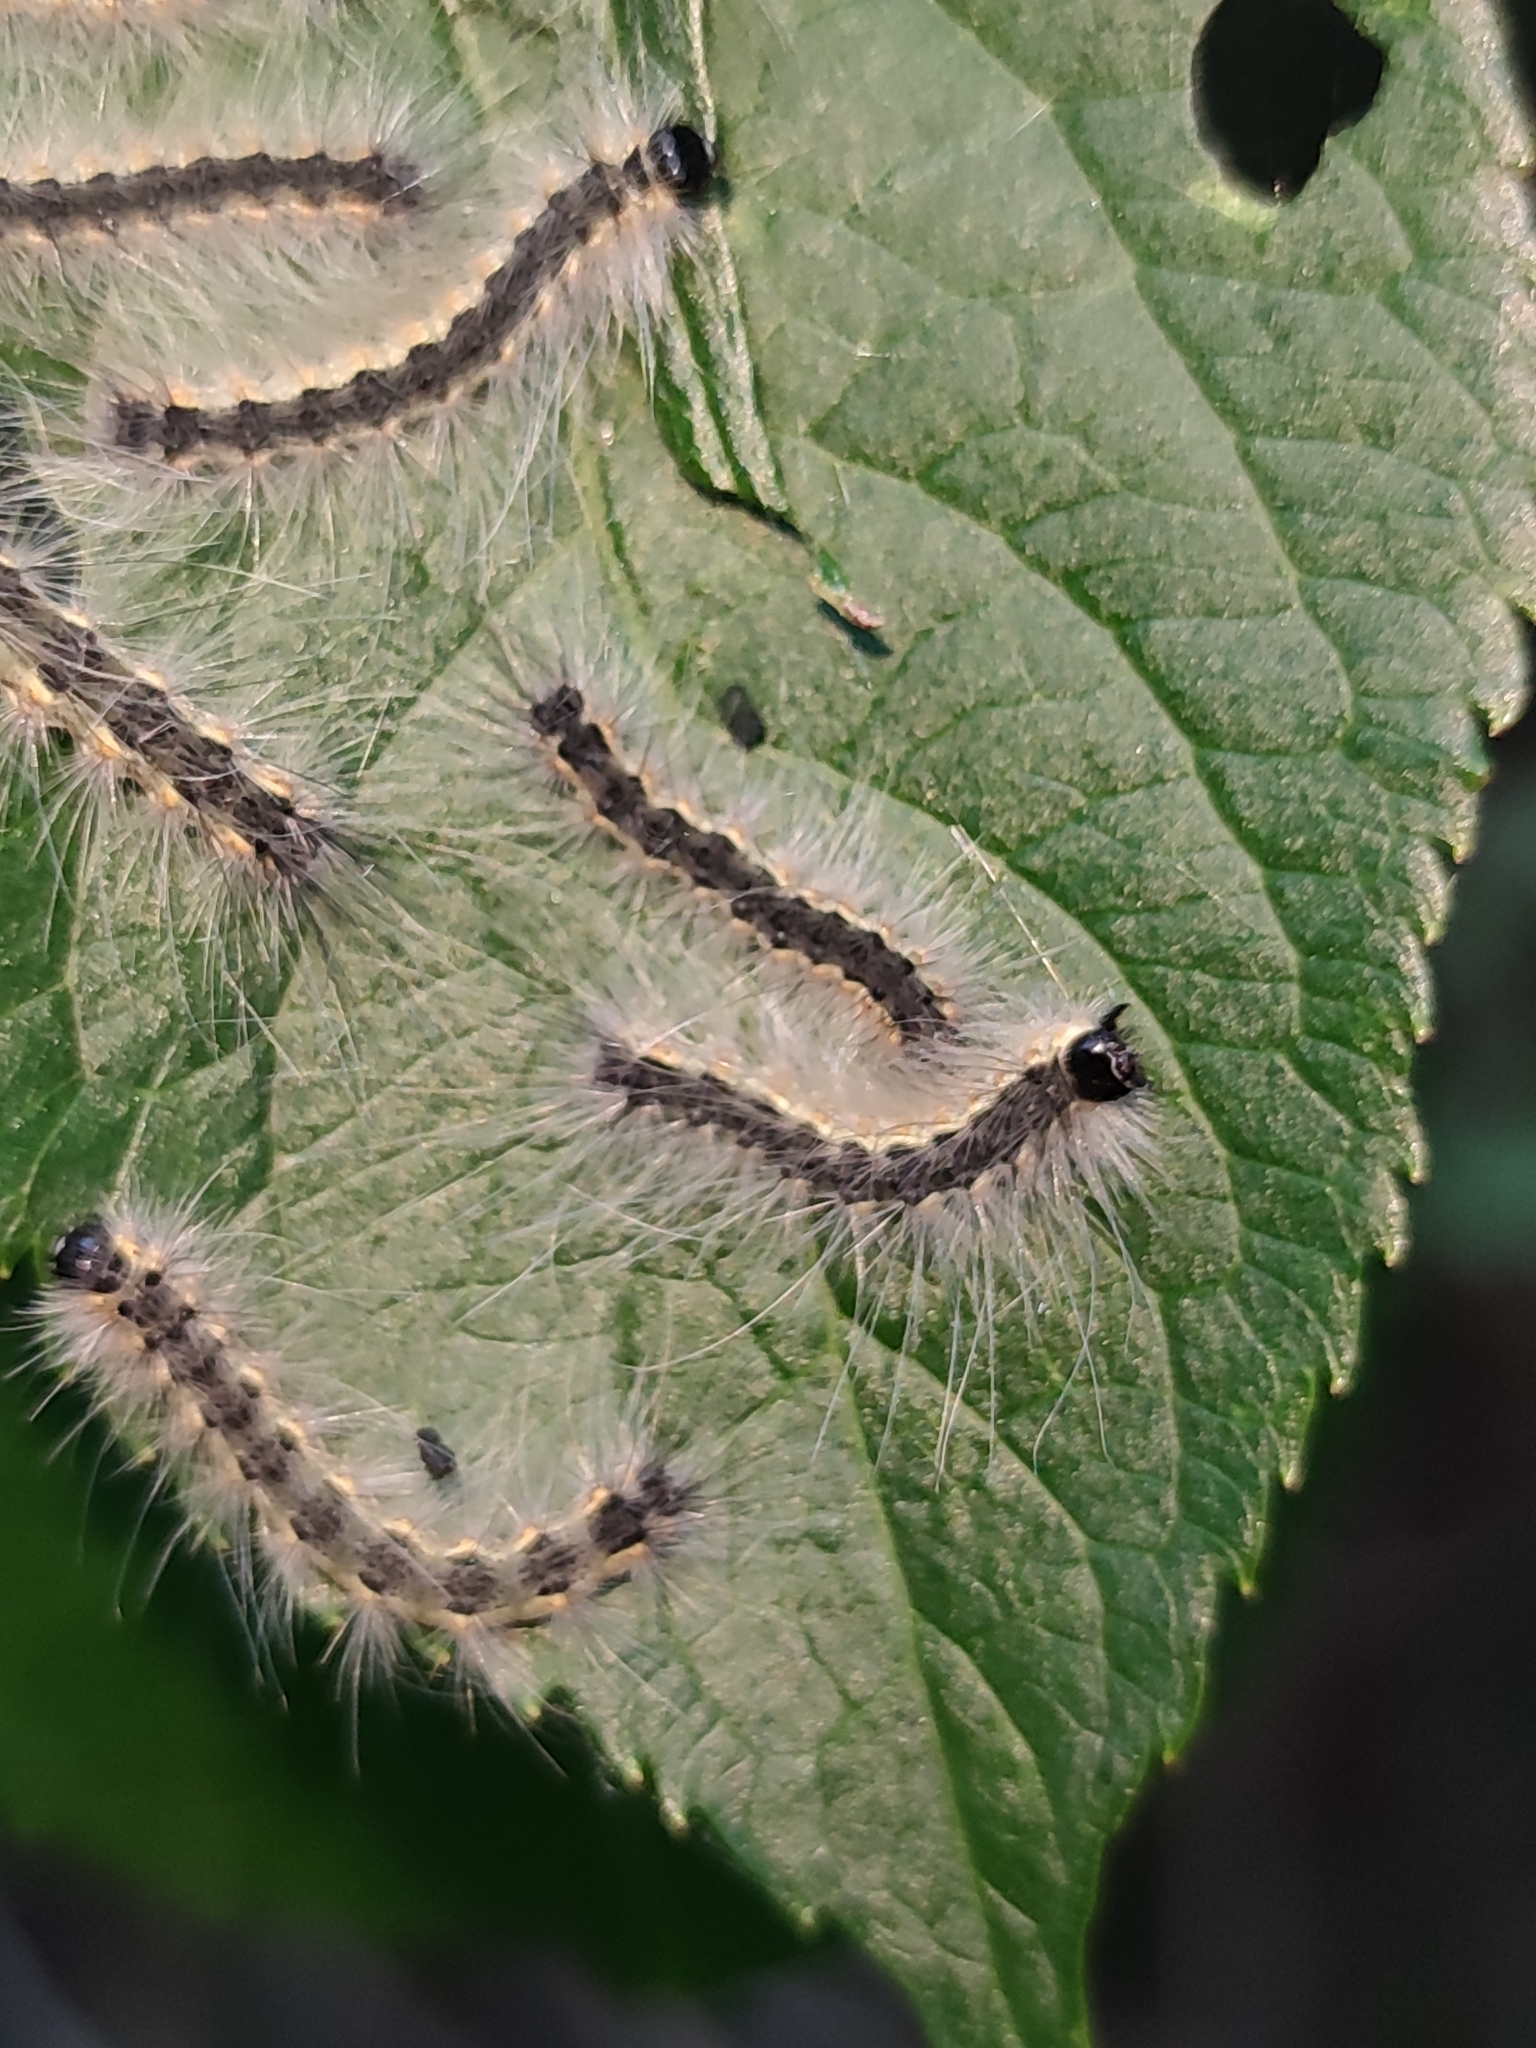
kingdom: Animalia
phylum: Arthropoda
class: Insecta
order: Lepidoptera
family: Erebidae
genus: Hyphantria
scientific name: Hyphantria cunea
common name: American white moth
